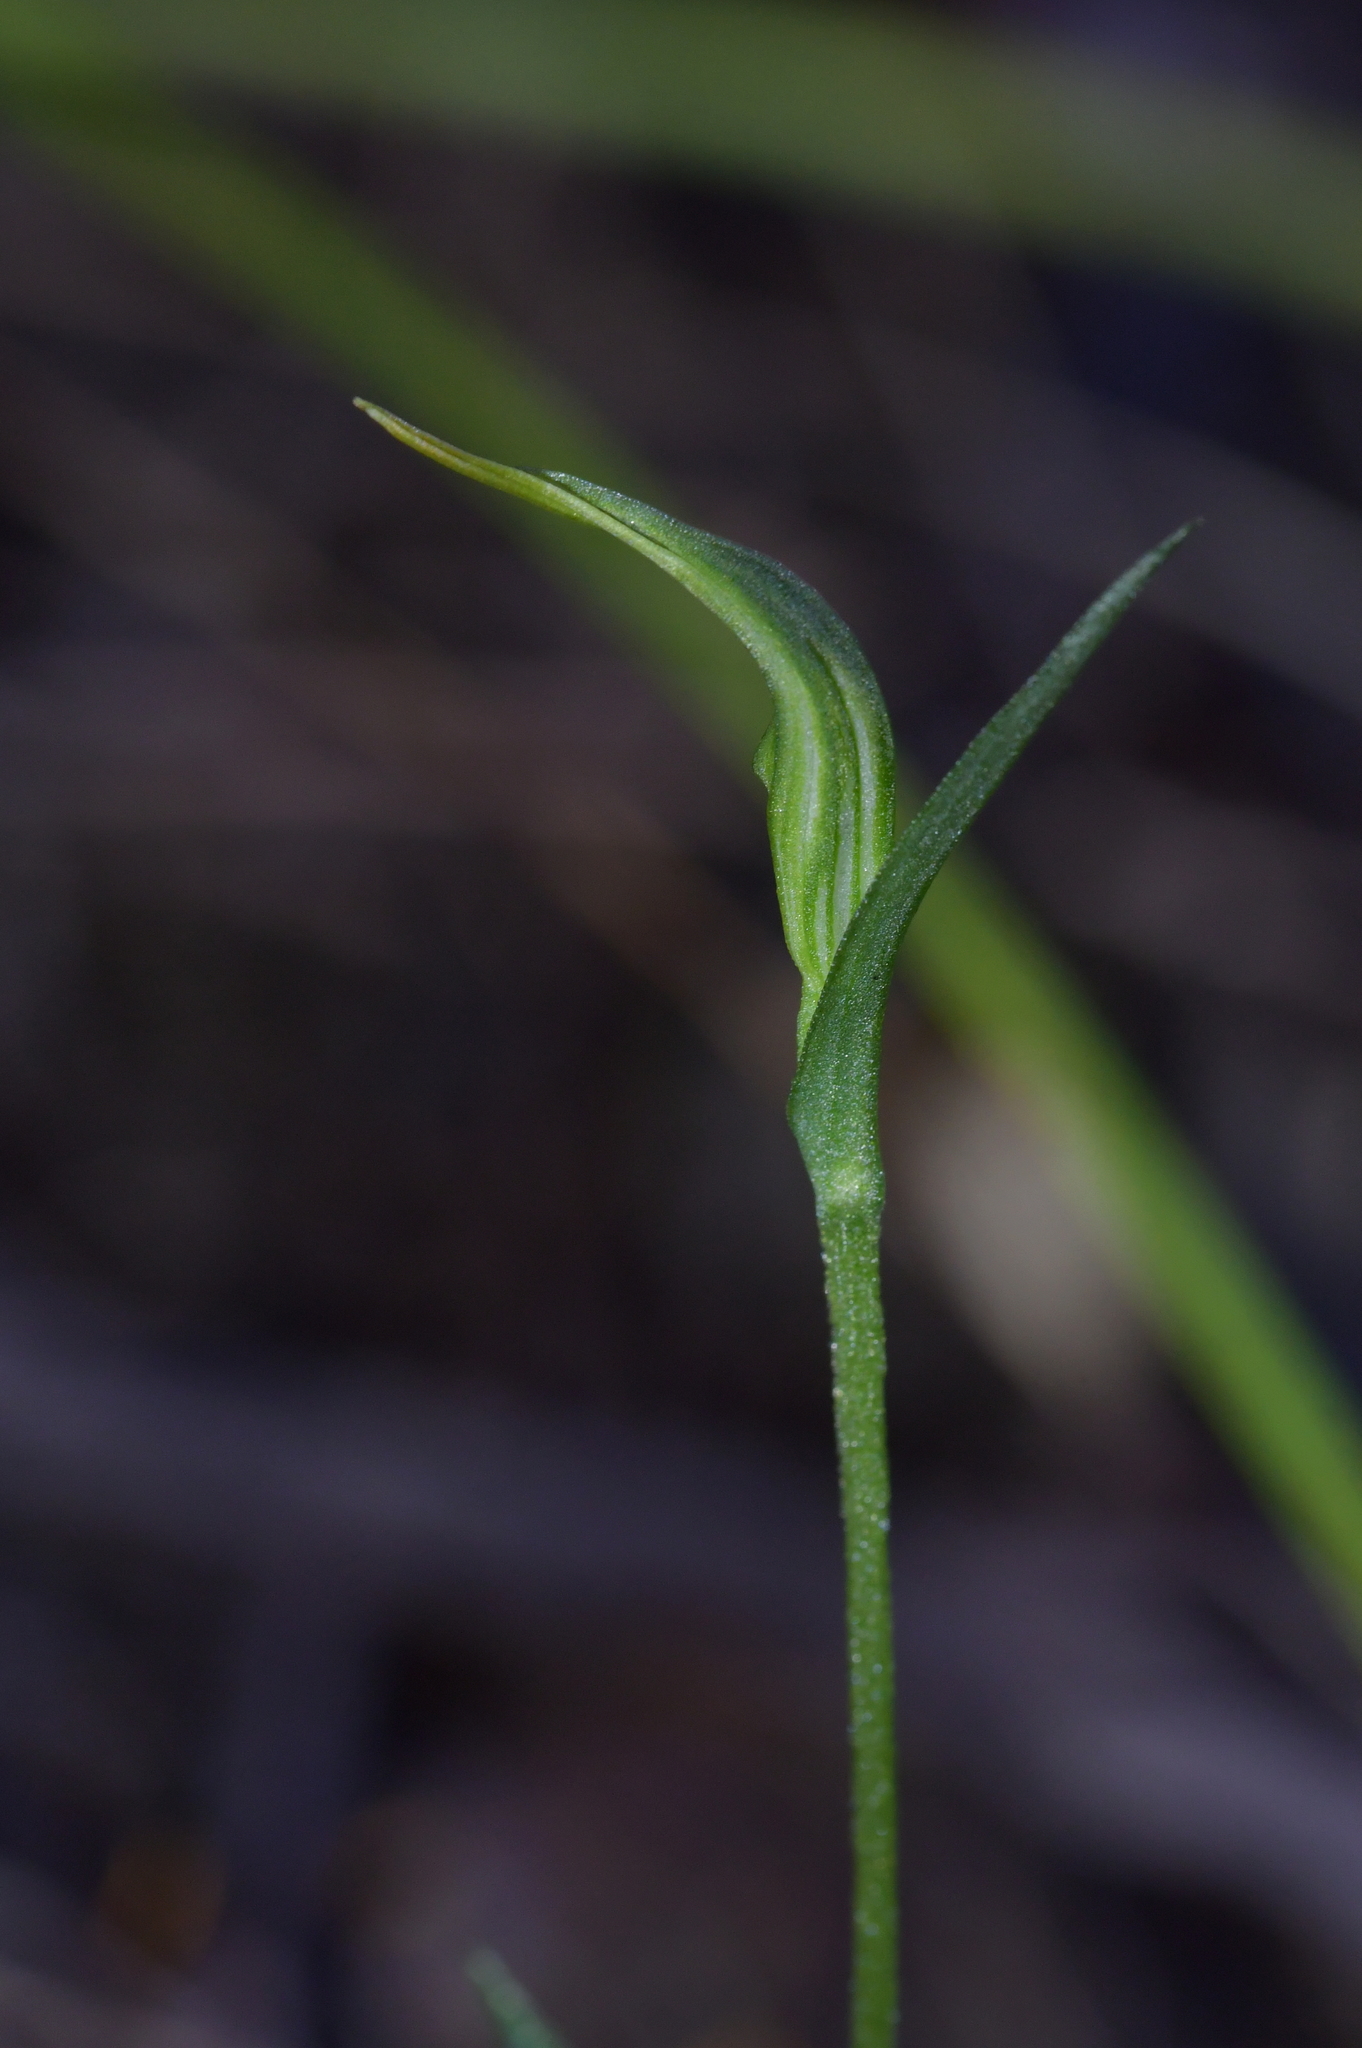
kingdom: Plantae
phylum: Tracheophyta
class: Liliopsida
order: Asparagales
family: Orchidaceae
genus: Pterostylis
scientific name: Pterostylis trullifolia
